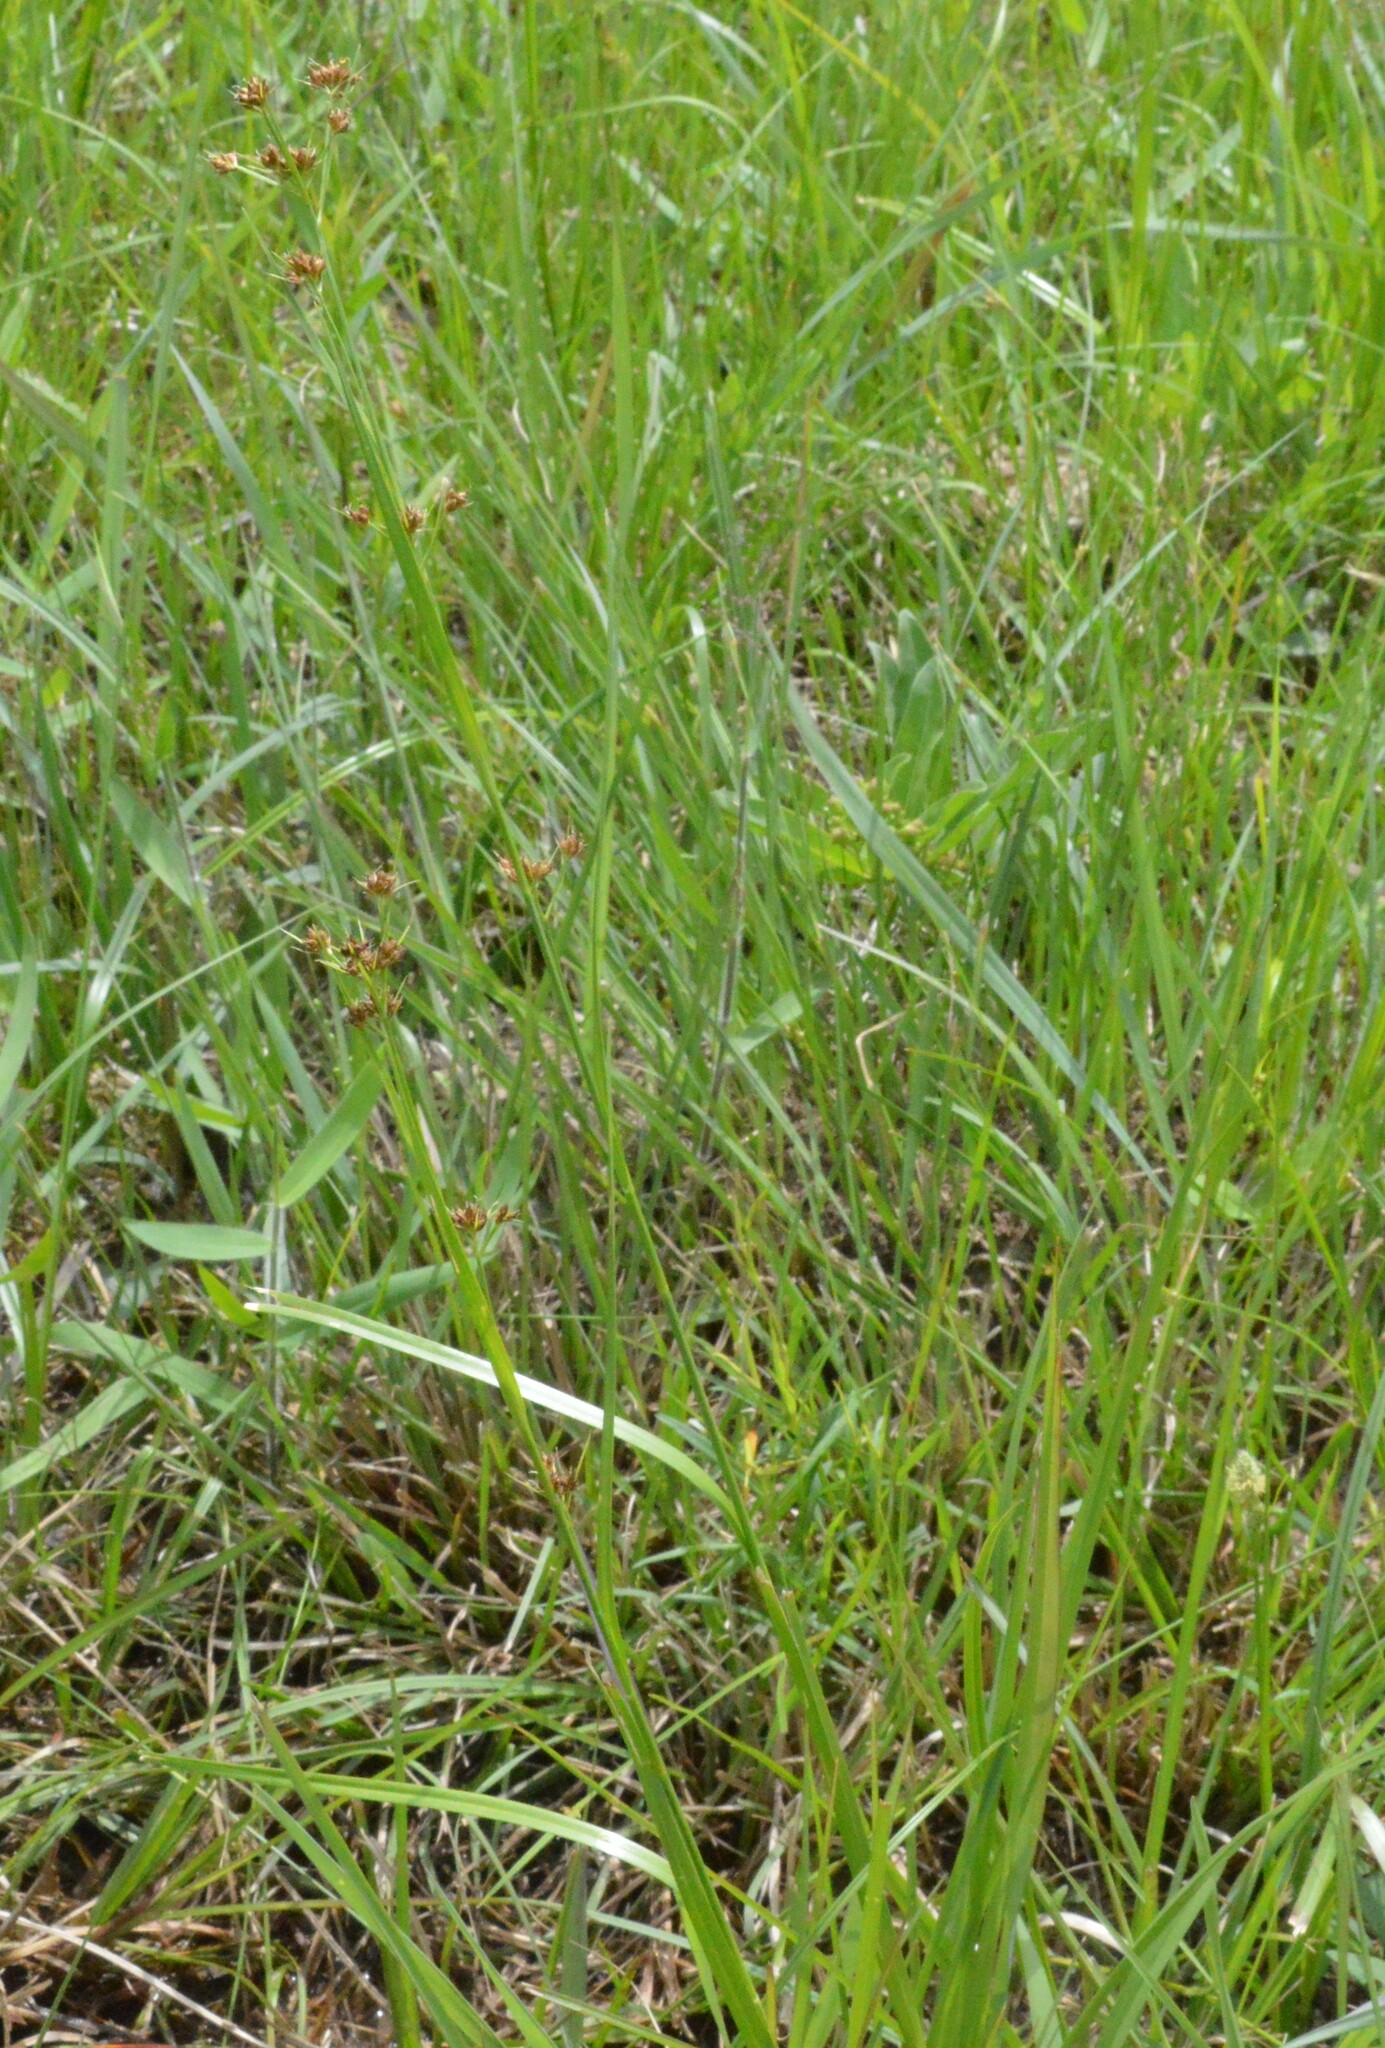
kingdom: Plantae
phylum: Tracheophyta
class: Liliopsida
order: Poales
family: Cyperaceae
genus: Rhynchospora
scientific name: Rhynchospora harveyi
